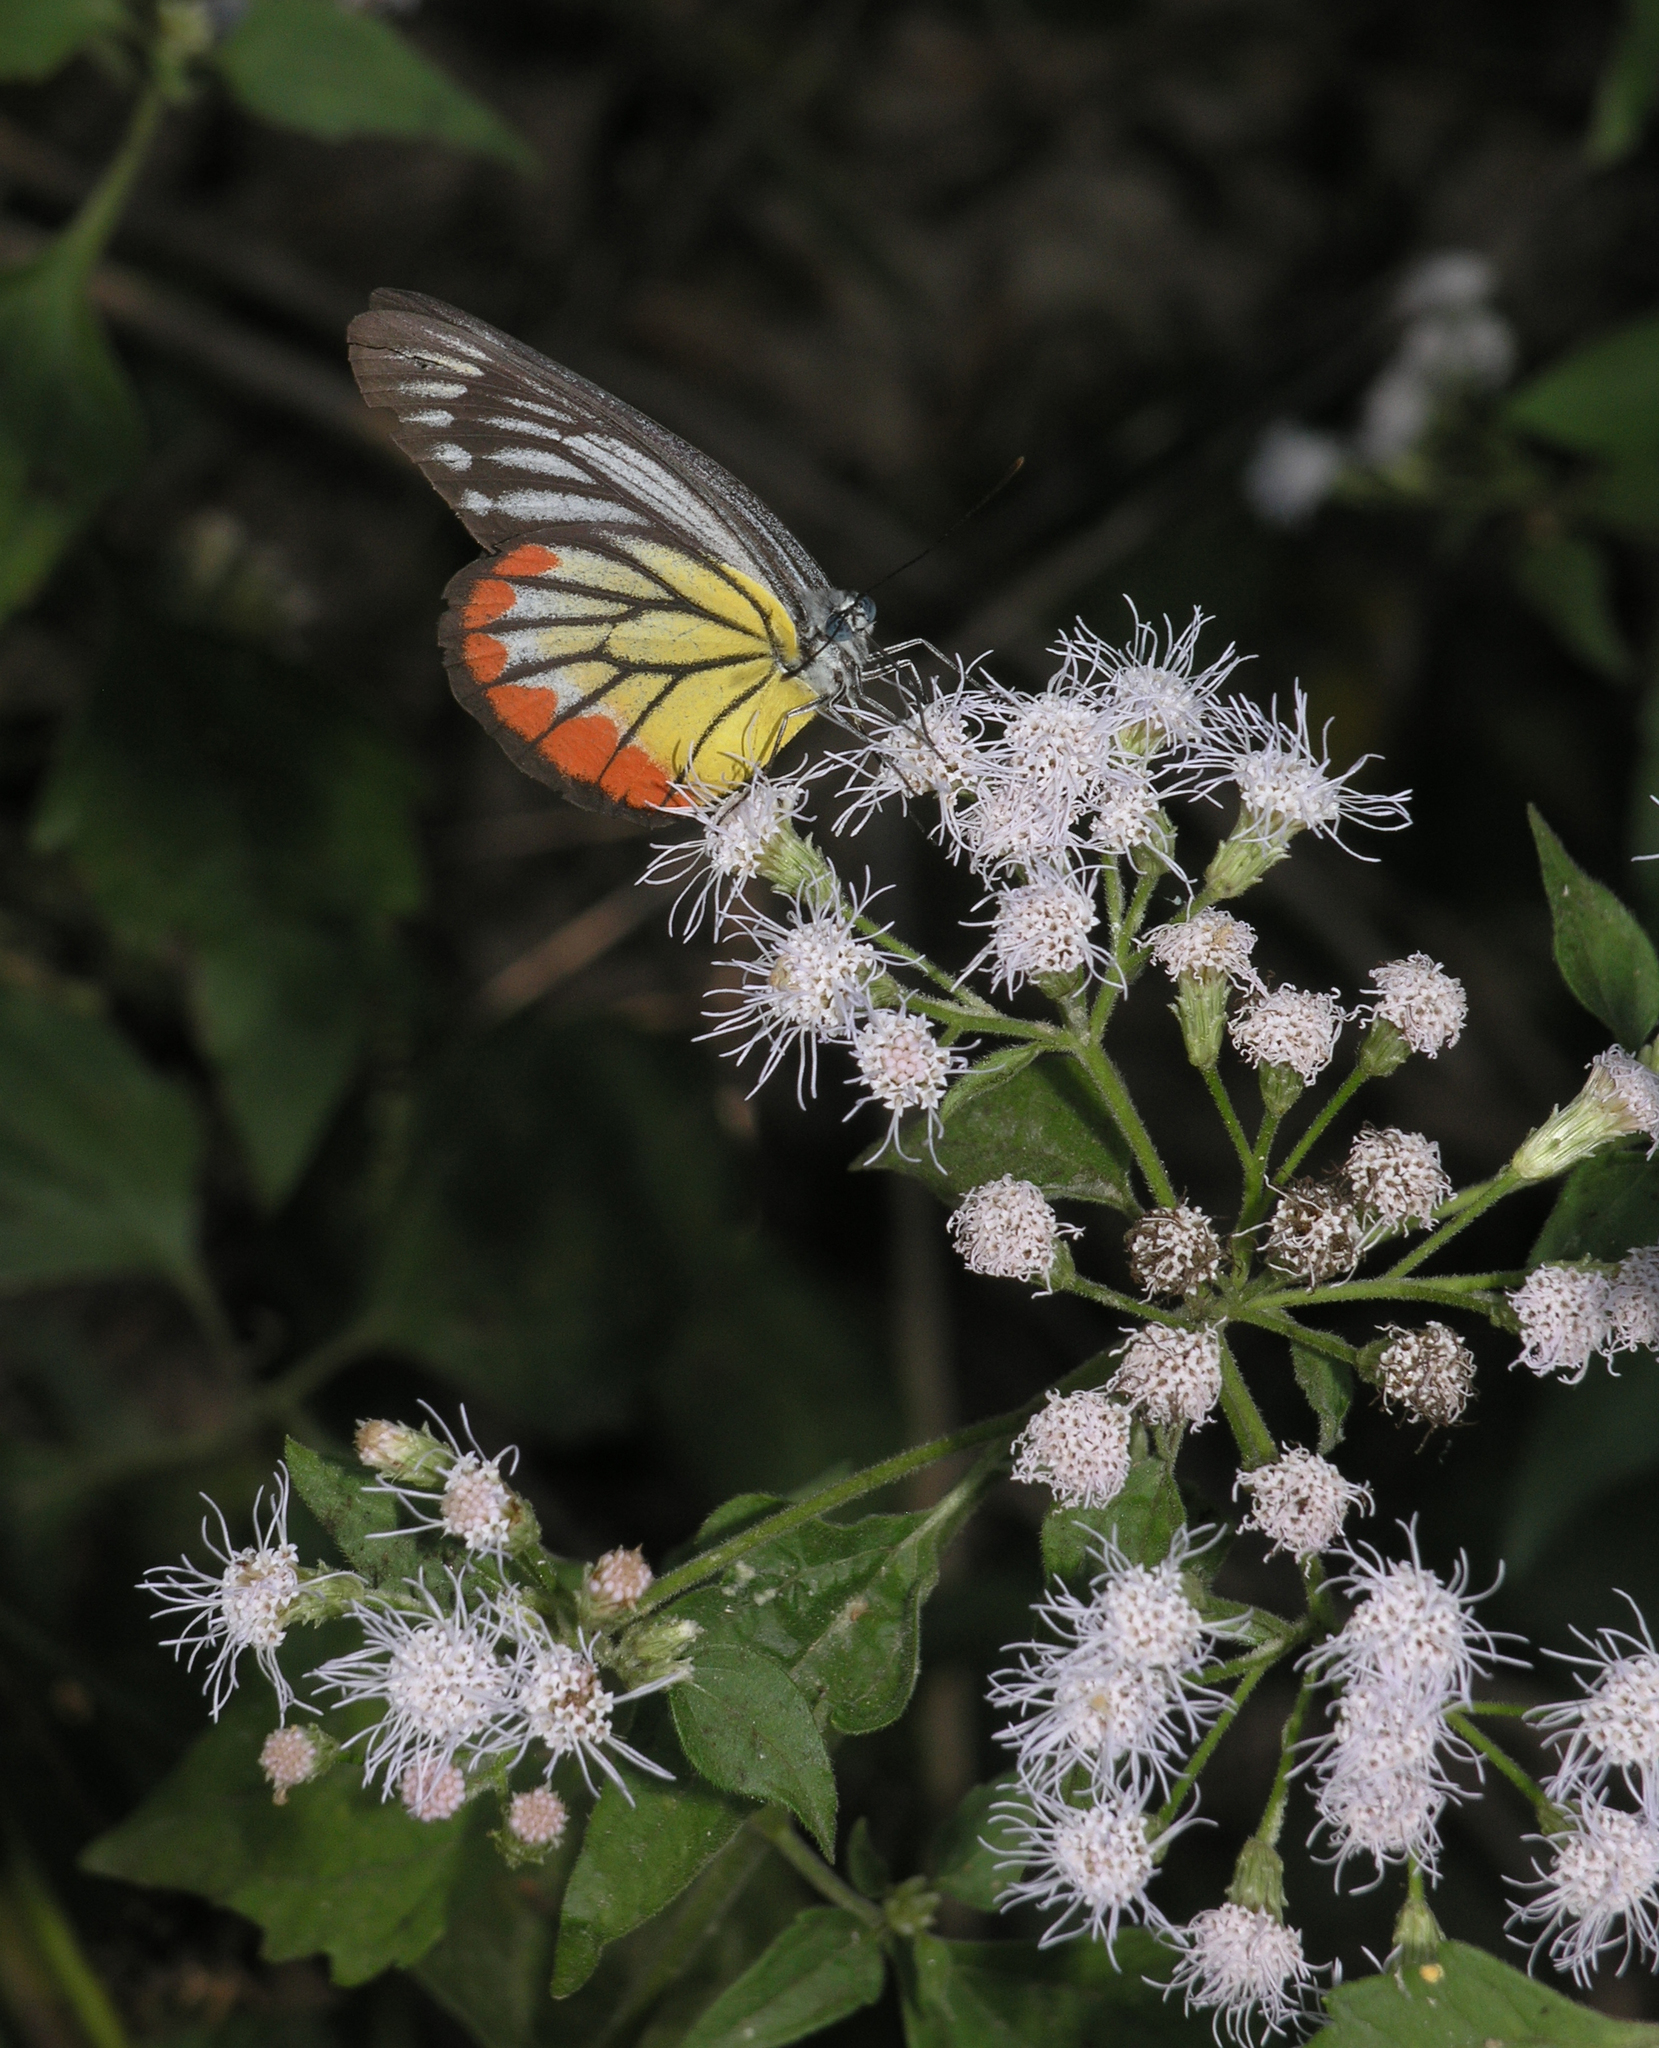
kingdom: Animalia
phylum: Arthropoda
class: Insecta
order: Lepidoptera
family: Pieridae
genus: Delias
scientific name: Delias hyparete
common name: Painted jezebel
